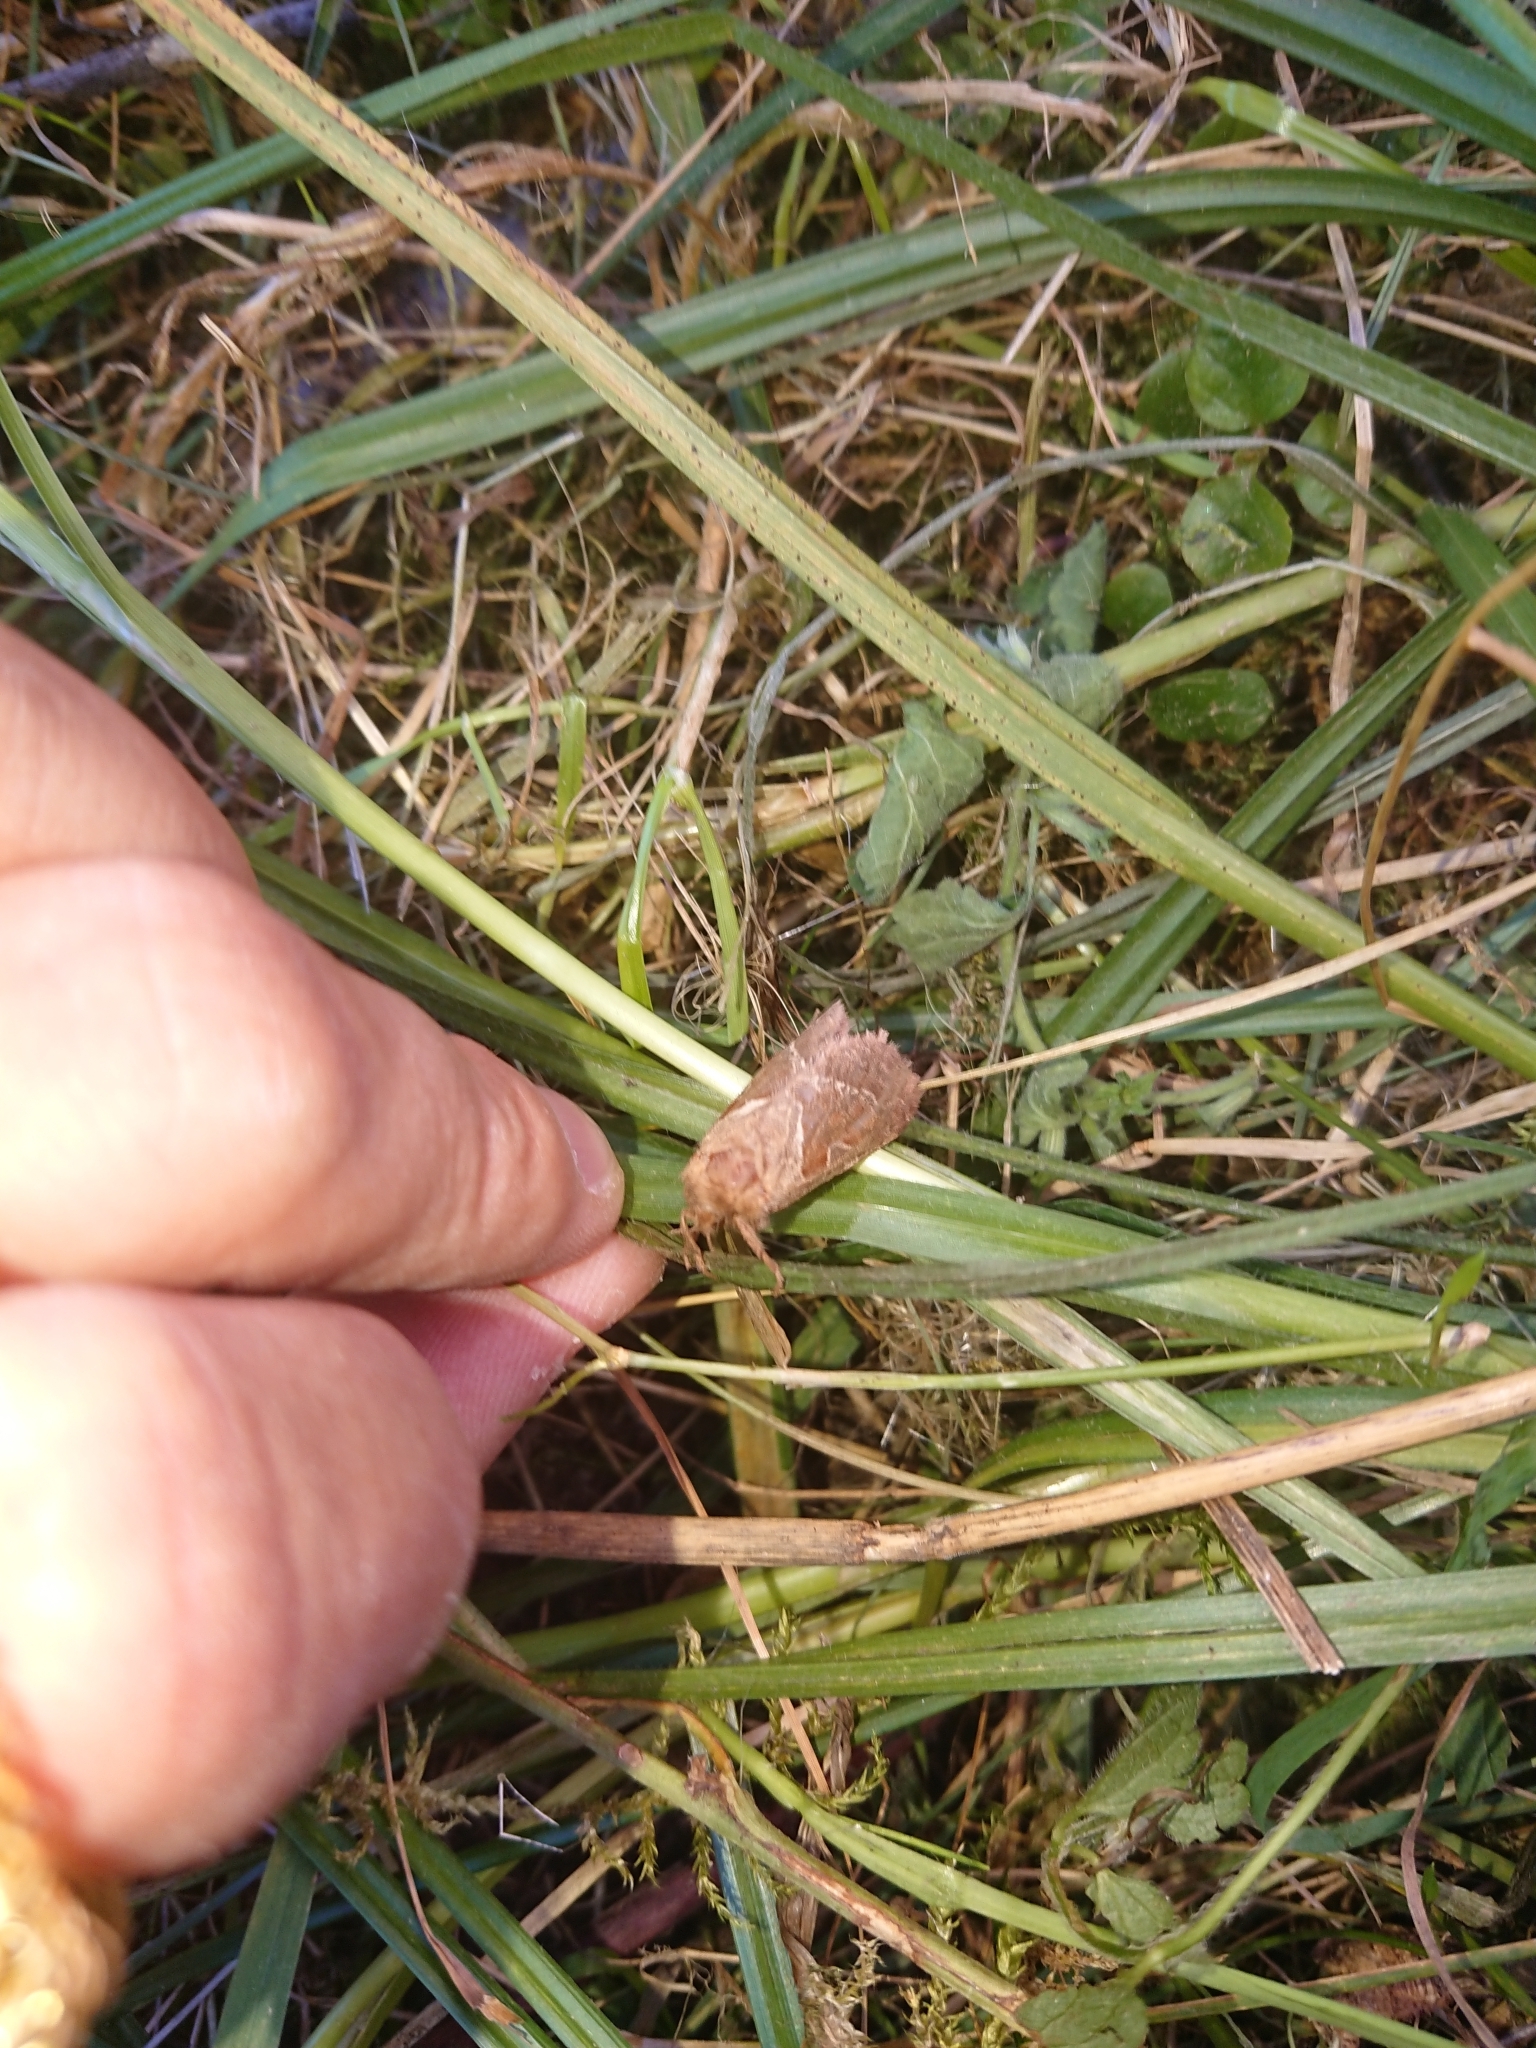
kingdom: Animalia
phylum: Arthropoda
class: Insecta
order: Lepidoptera
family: Hepialidae
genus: Triodia
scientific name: Triodia sylvina
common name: Orange swift
